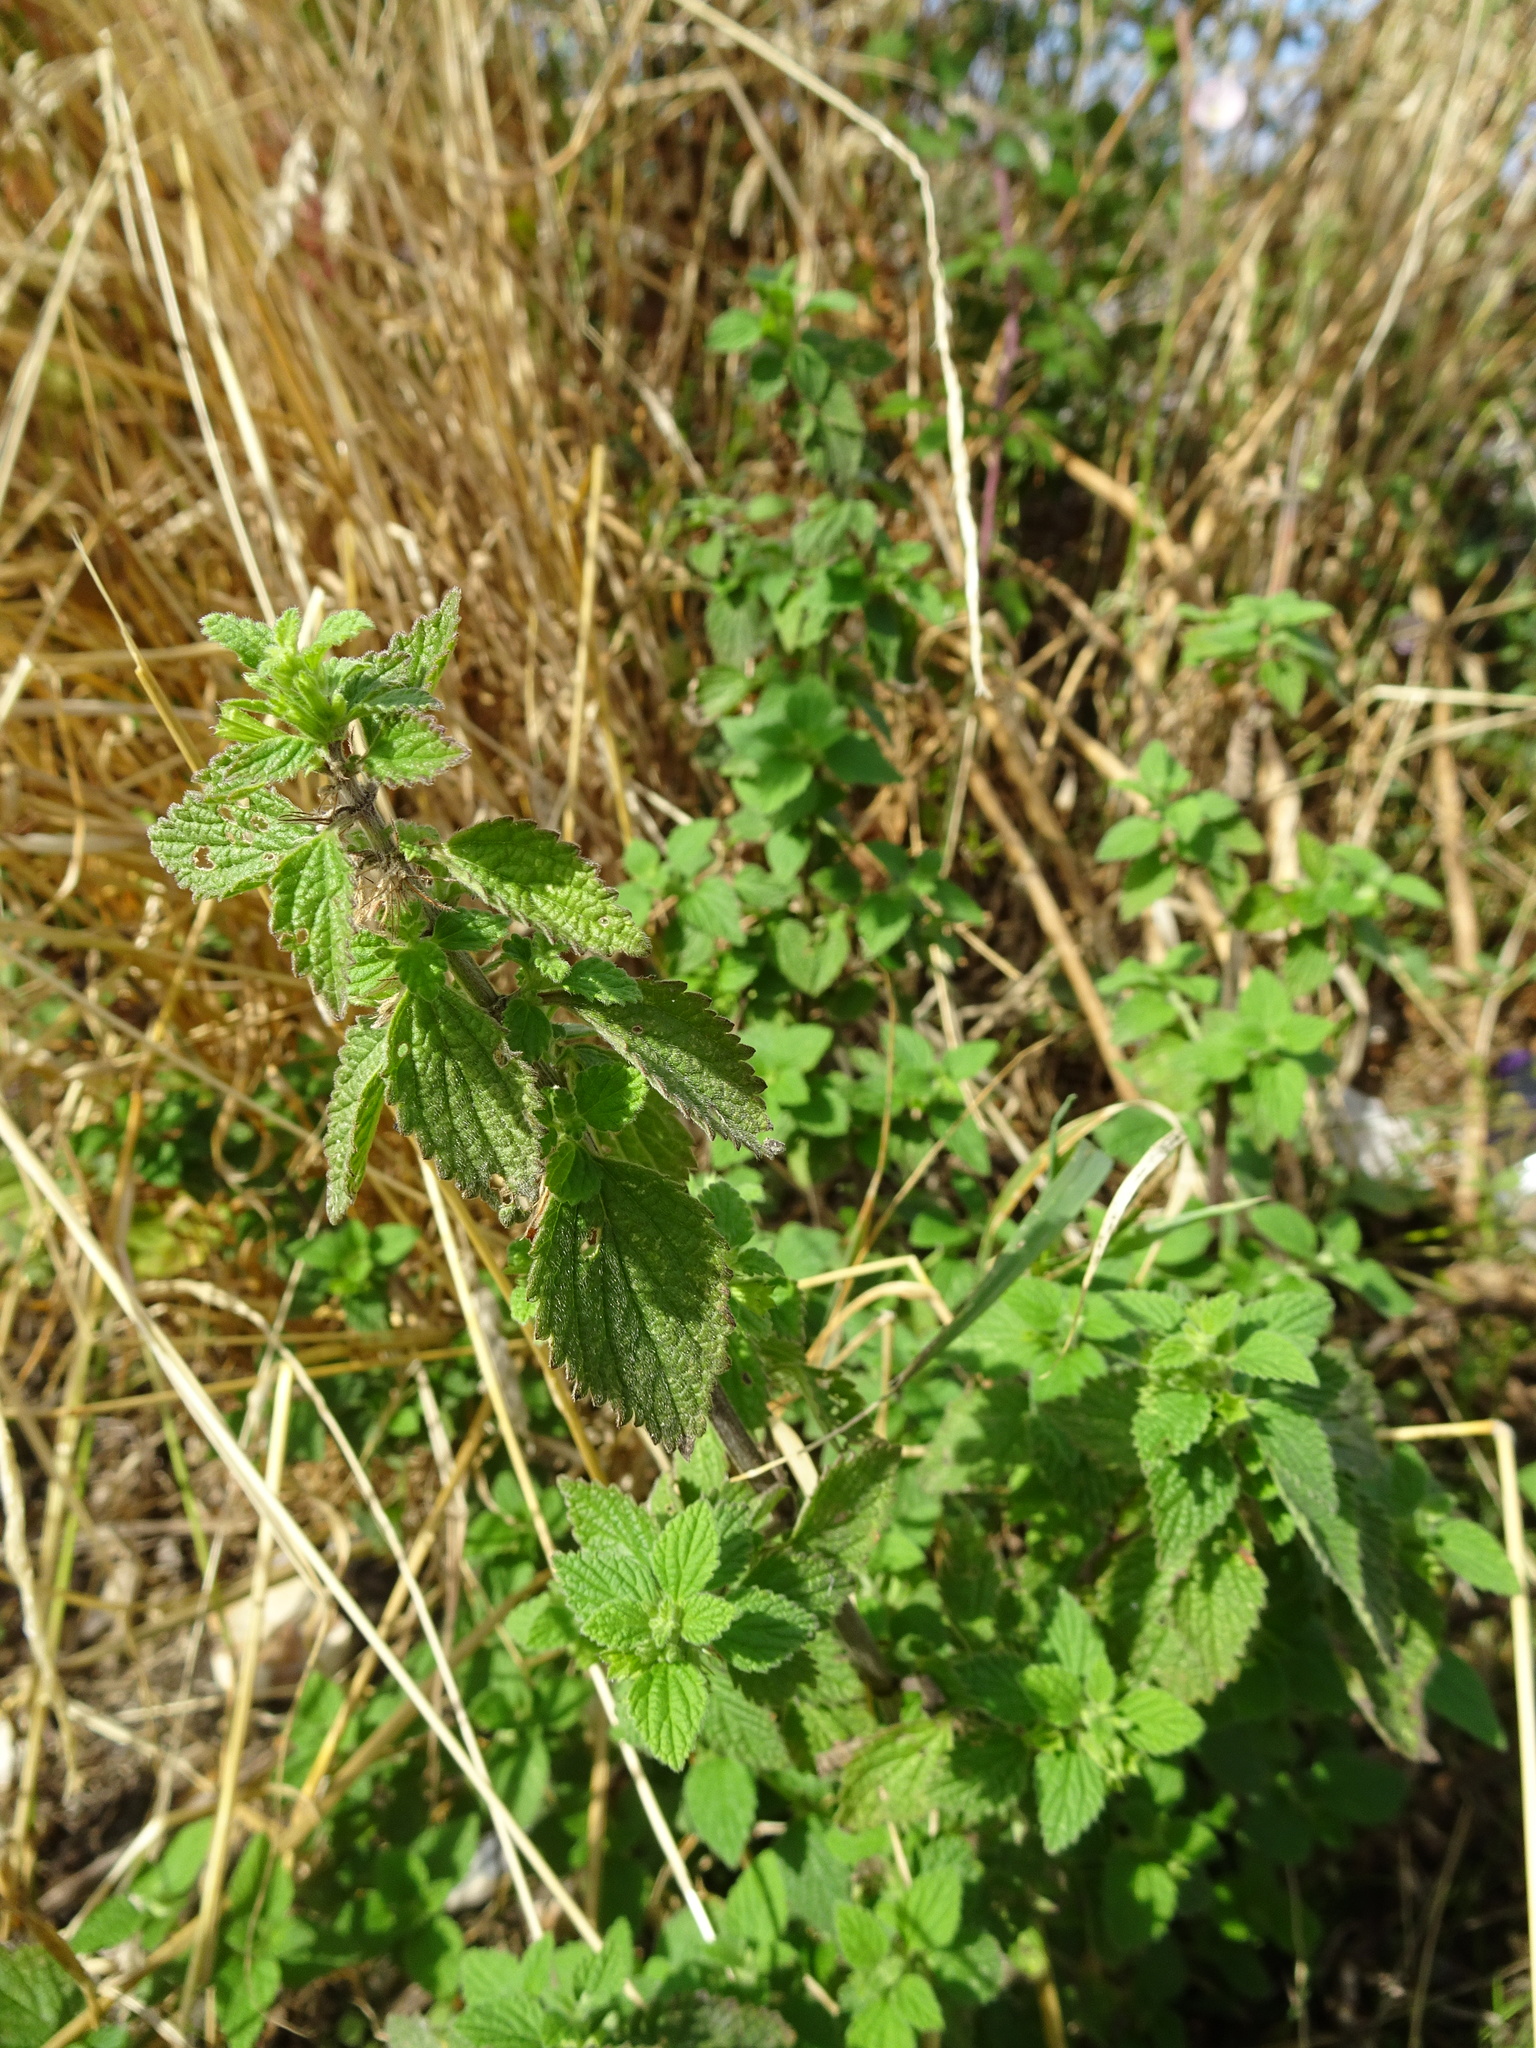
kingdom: Plantae
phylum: Tracheophyta
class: Magnoliopsida
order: Rosales
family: Urticaceae
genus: Urtica
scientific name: Urtica dioica
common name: Common nettle
